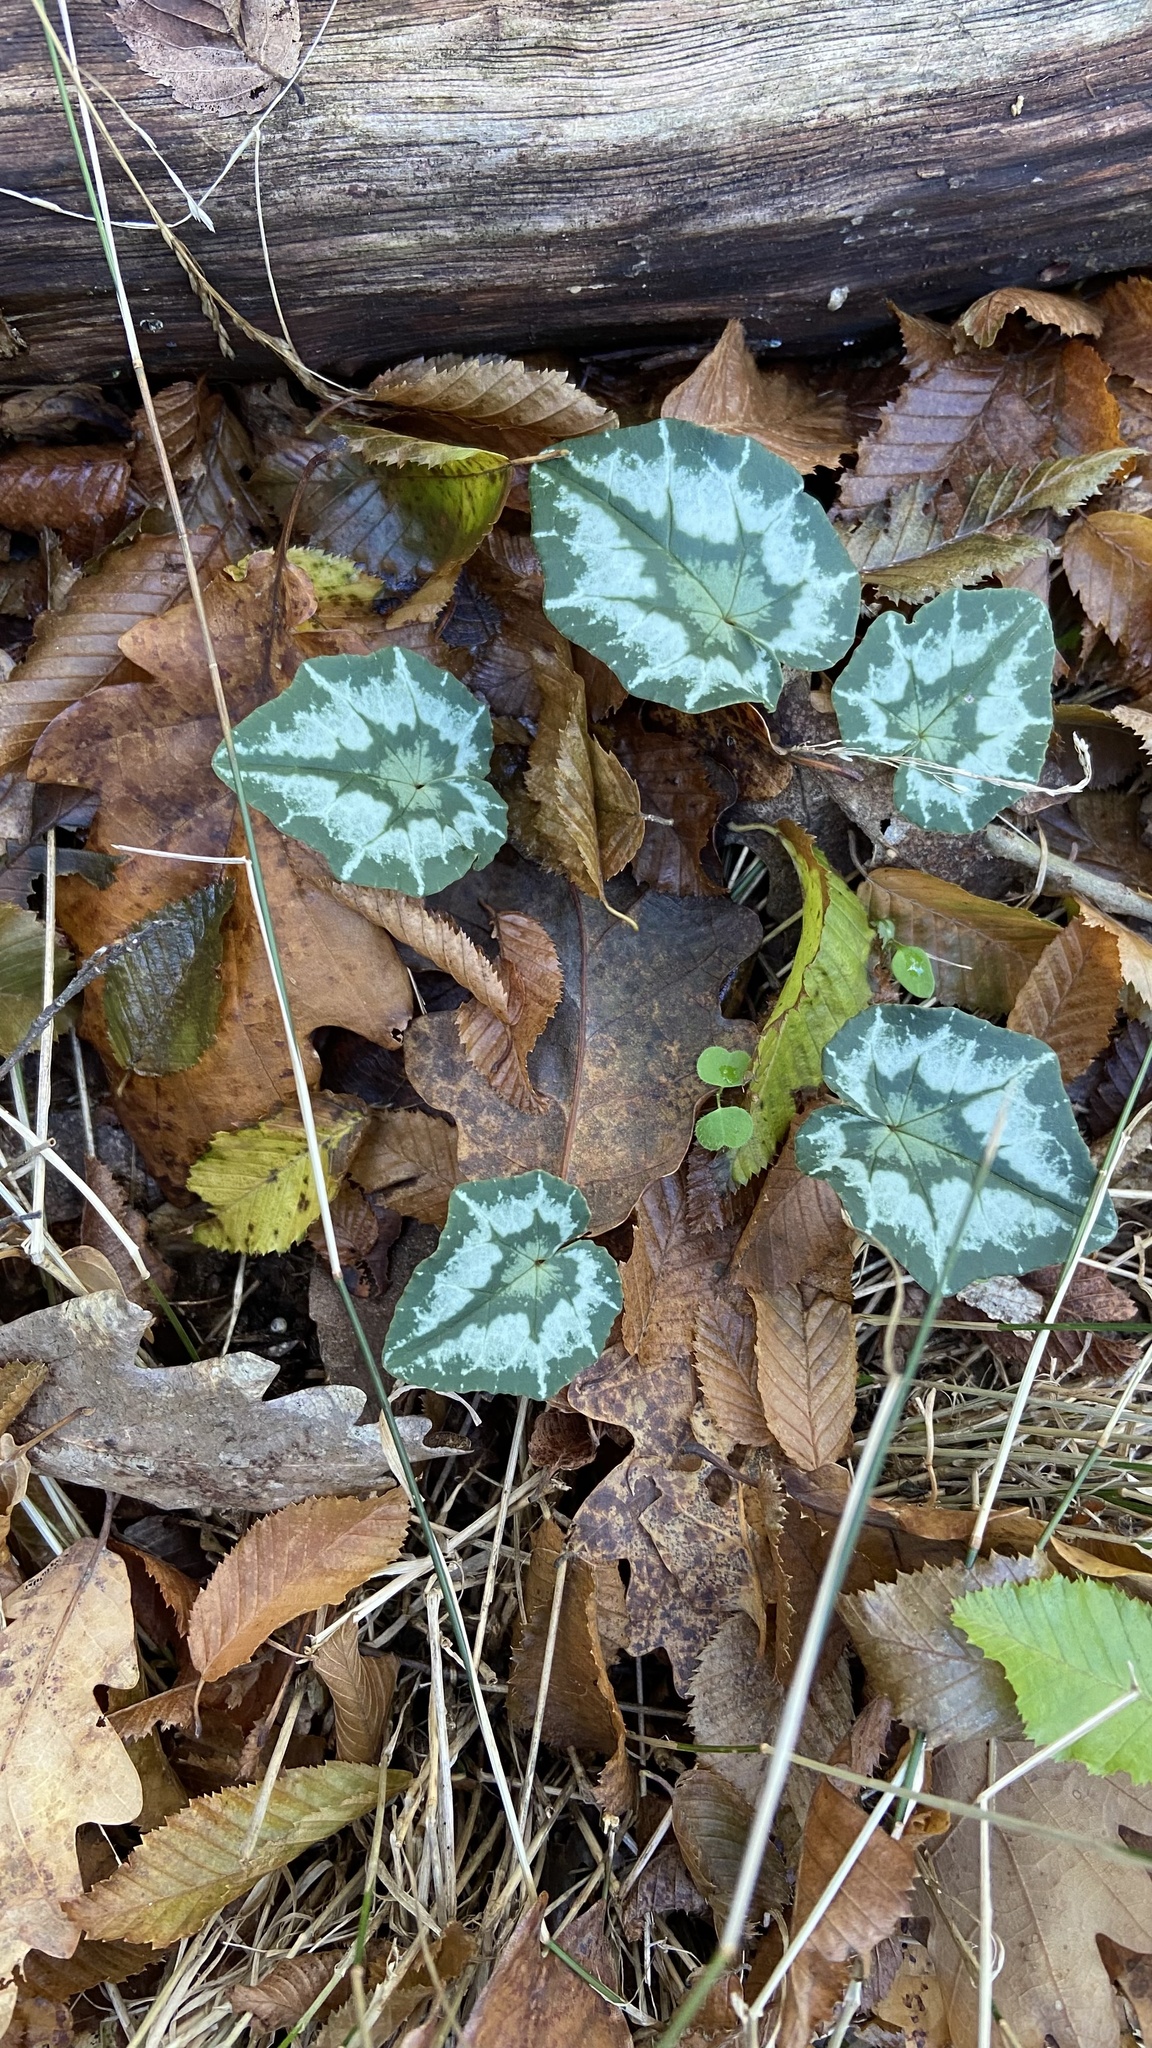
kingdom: Plantae
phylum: Tracheophyta
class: Magnoliopsida
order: Ericales
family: Primulaceae
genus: Cyclamen
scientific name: Cyclamen hederifolium
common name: Sowbread
